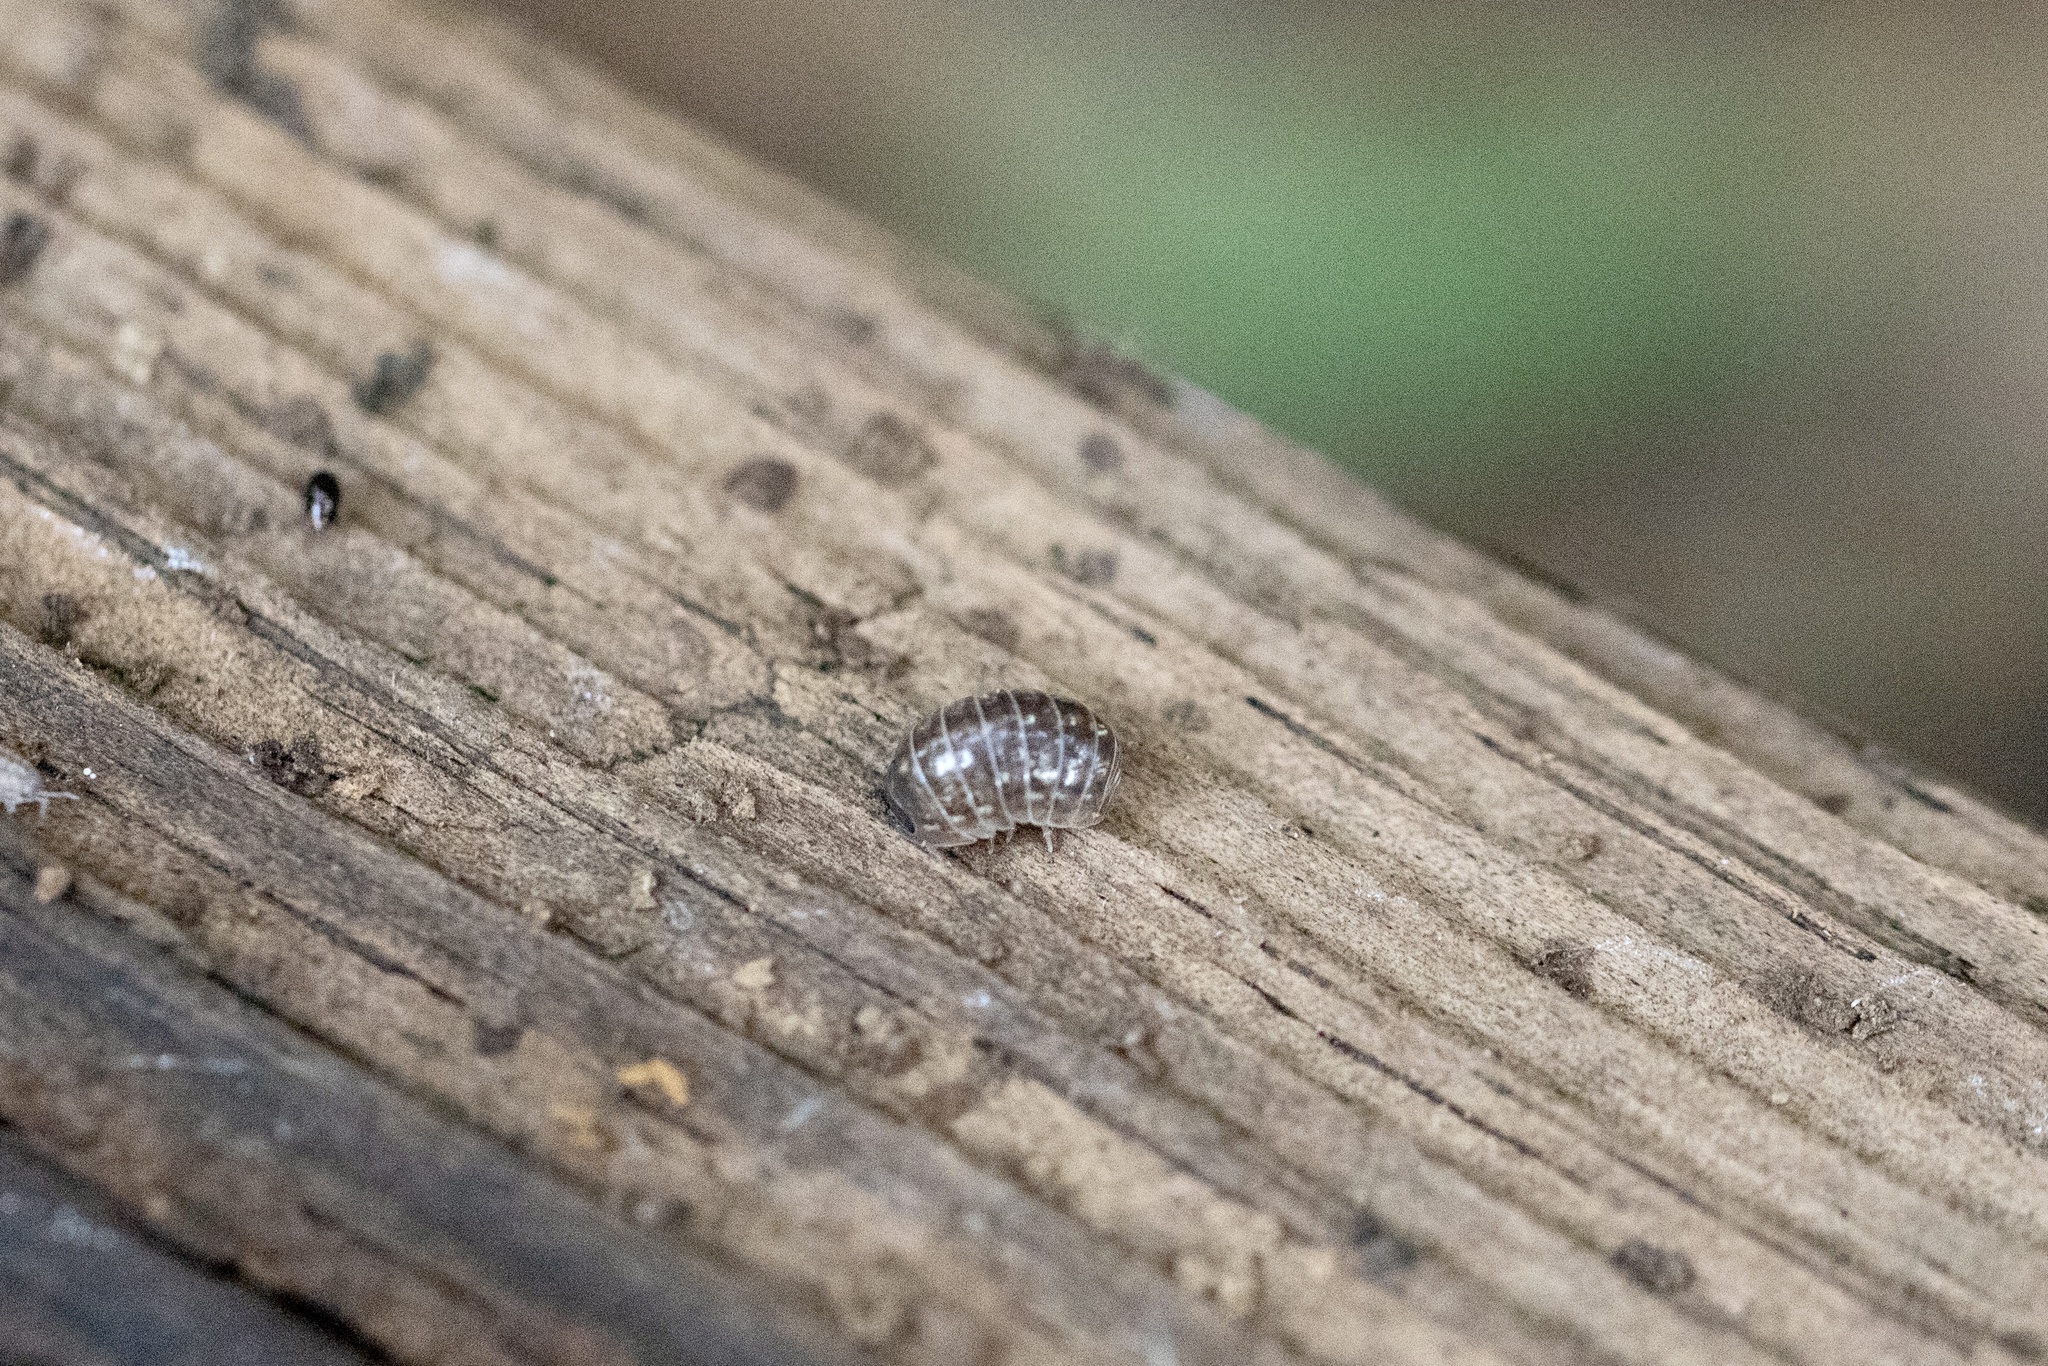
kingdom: Animalia
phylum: Arthropoda
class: Malacostraca
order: Isopoda
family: Armadillidiidae
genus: Armadillidium
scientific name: Armadillidium vulgare
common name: Common pill woodlouse
